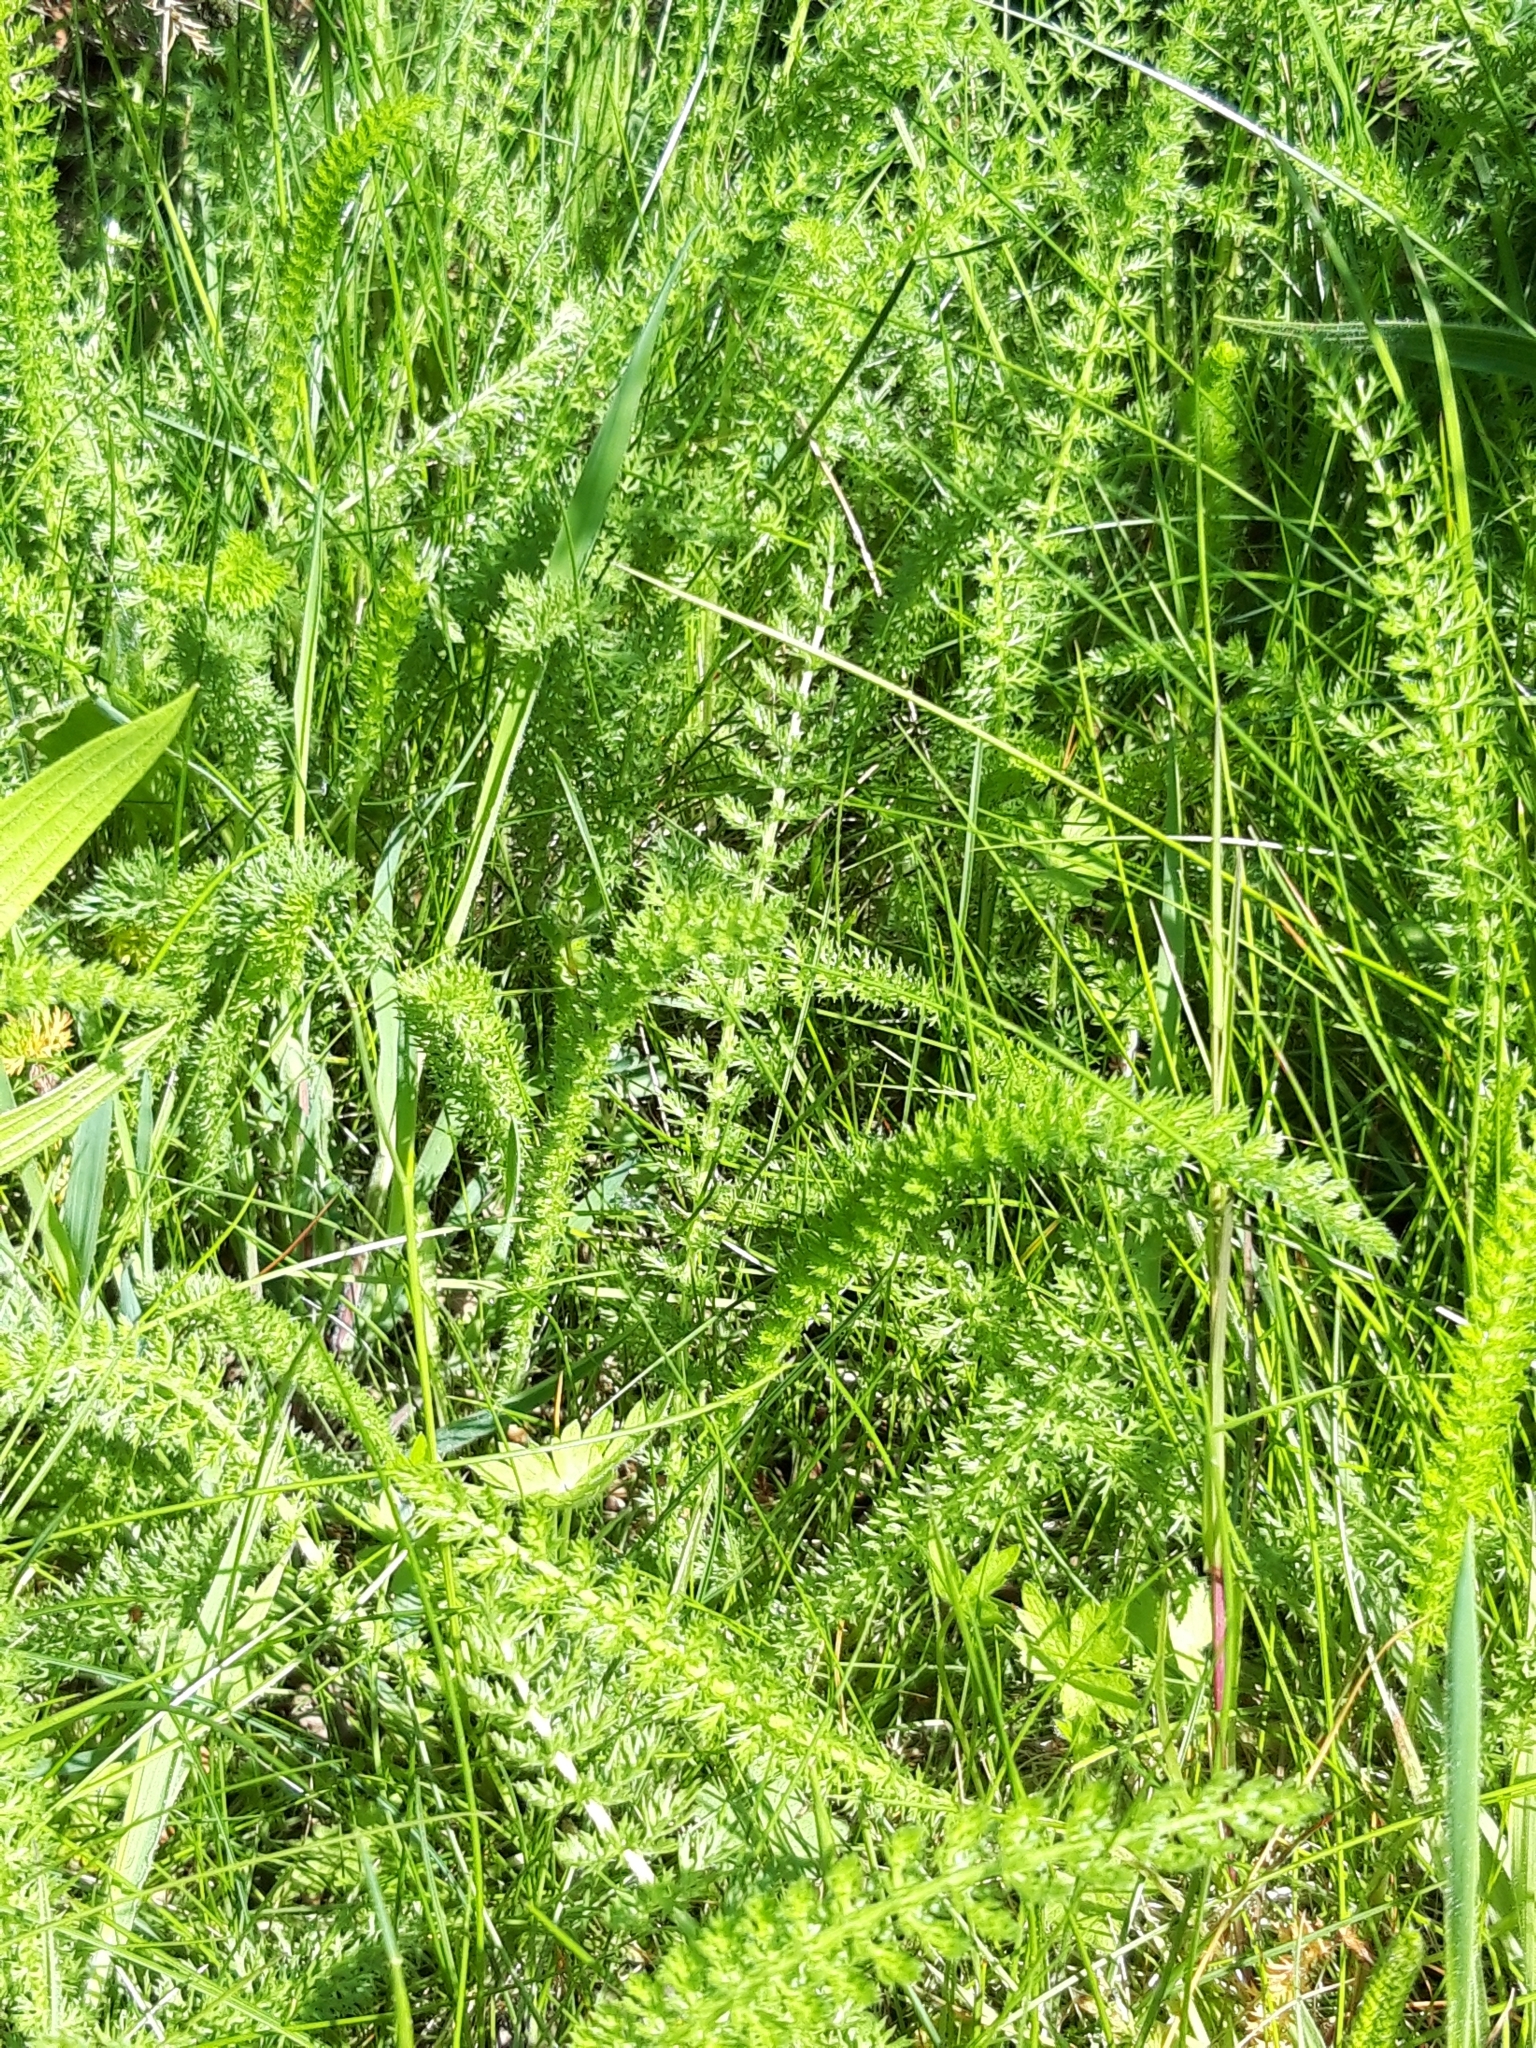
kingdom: Plantae
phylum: Tracheophyta
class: Magnoliopsida
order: Asterales
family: Asteraceae
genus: Achillea
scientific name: Achillea millefolium
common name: Yarrow
